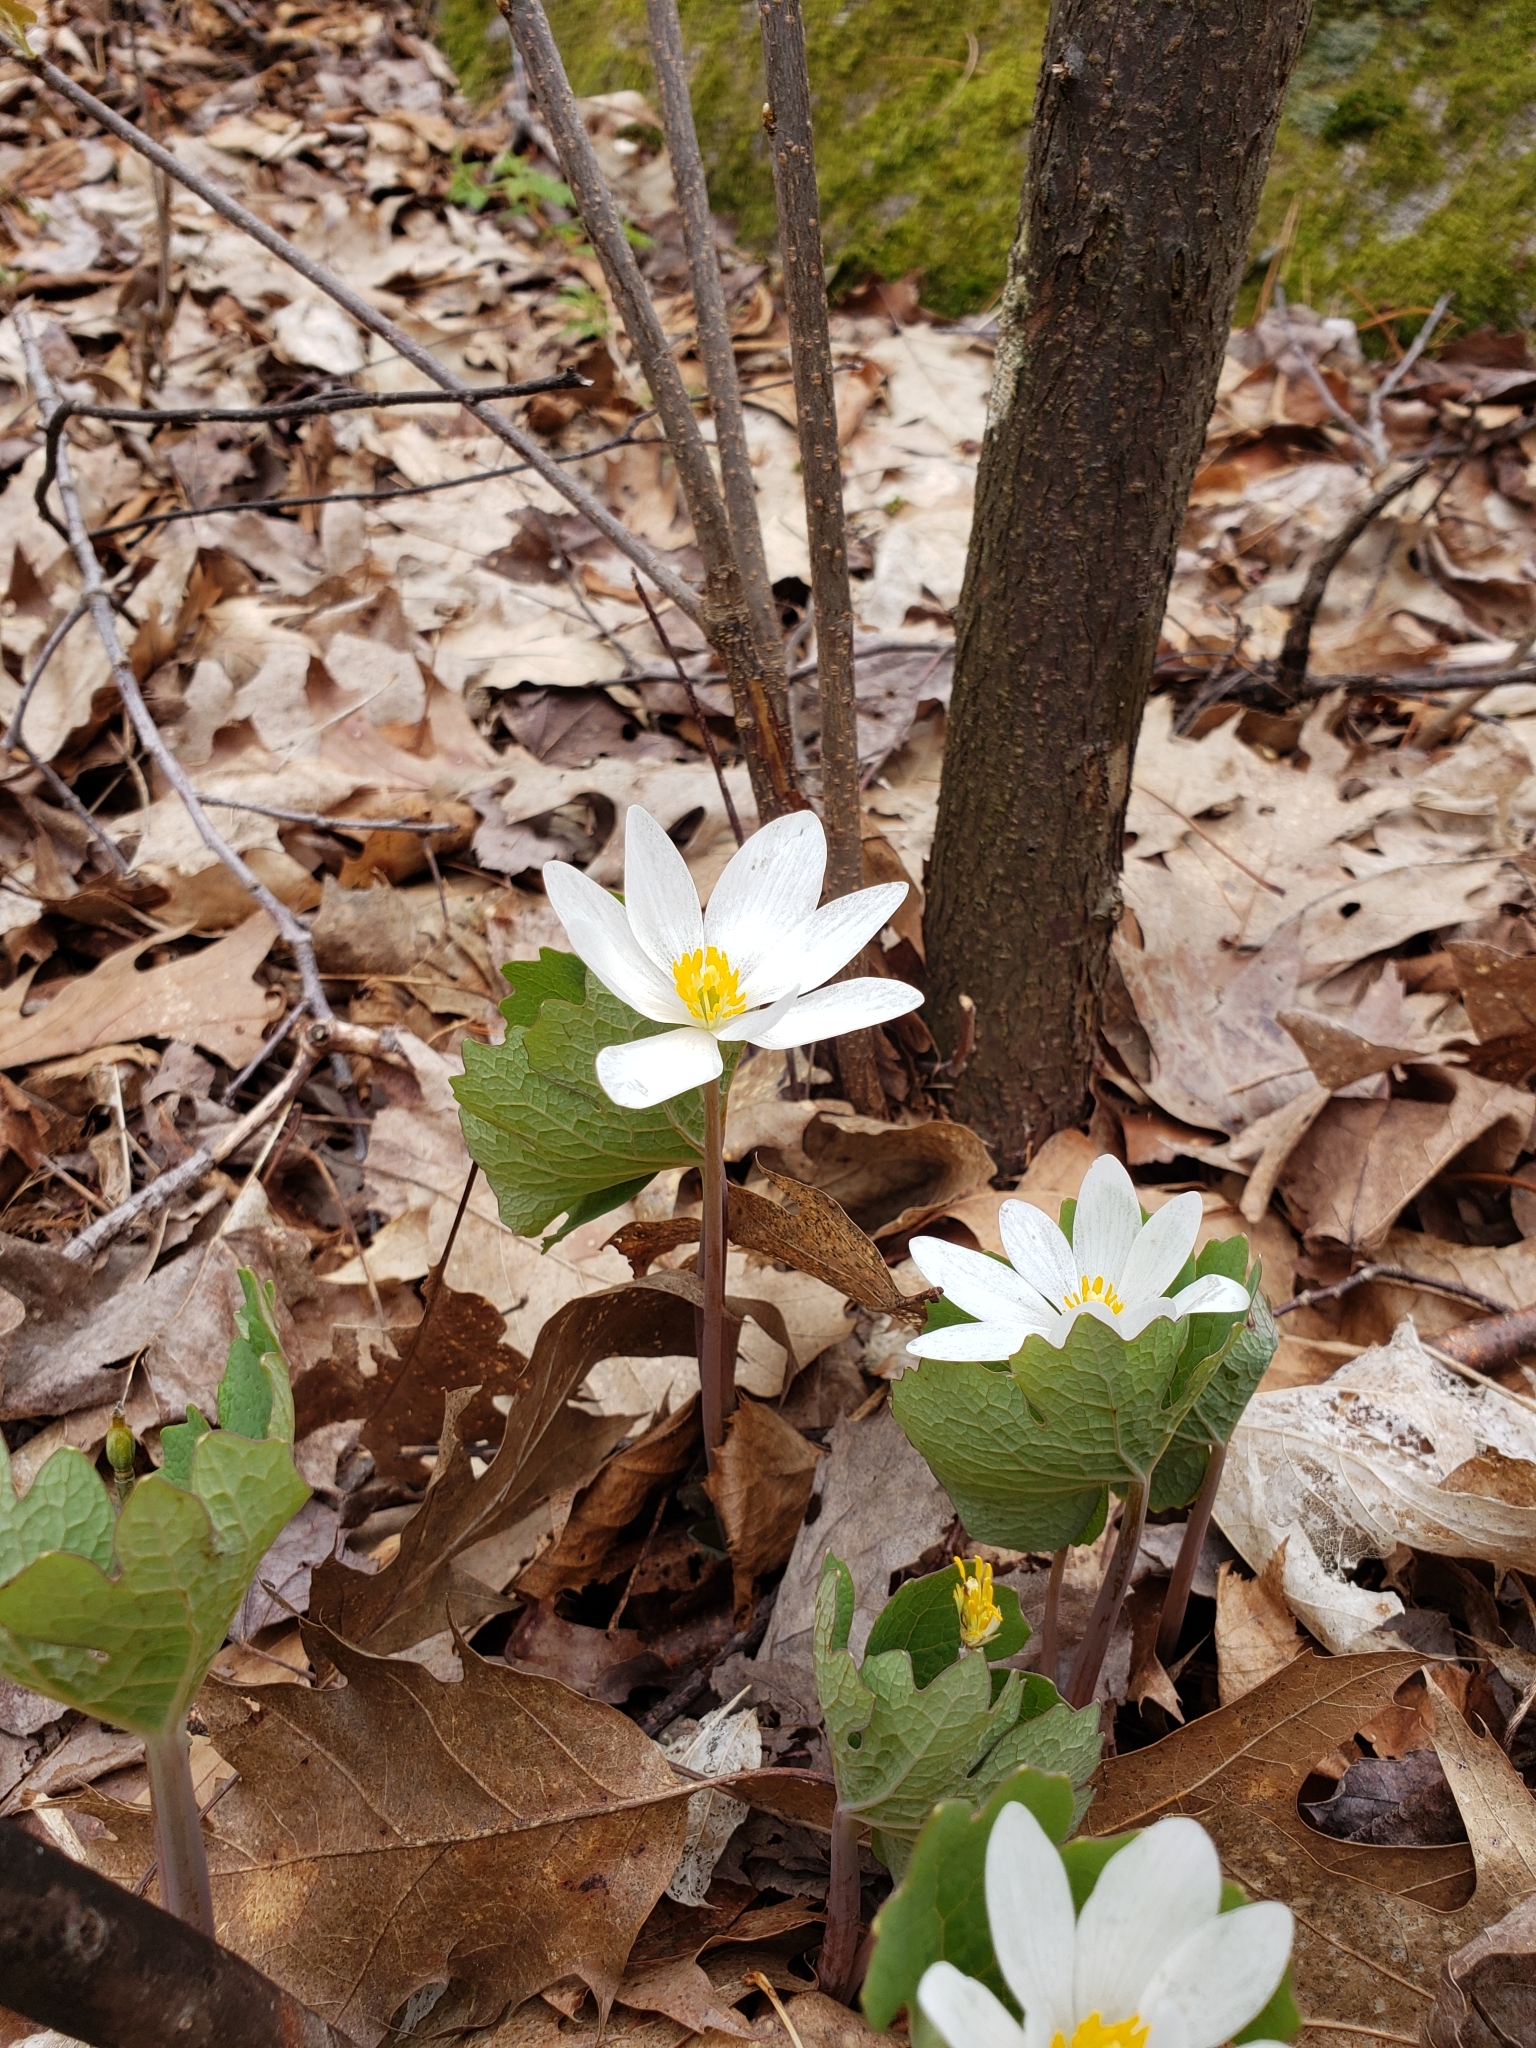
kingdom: Plantae
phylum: Tracheophyta
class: Magnoliopsida
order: Ranunculales
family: Papaveraceae
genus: Sanguinaria
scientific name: Sanguinaria canadensis
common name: Bloodroot
